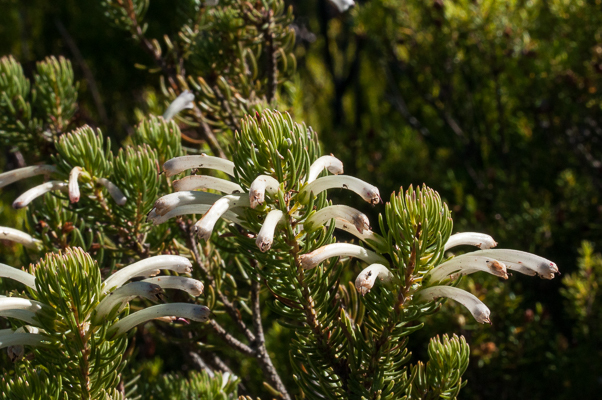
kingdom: Plantae
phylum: Tracheophyta
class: Magnoliopsida
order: Ericales
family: Ericaceae
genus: Erica
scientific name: Erica thomae
